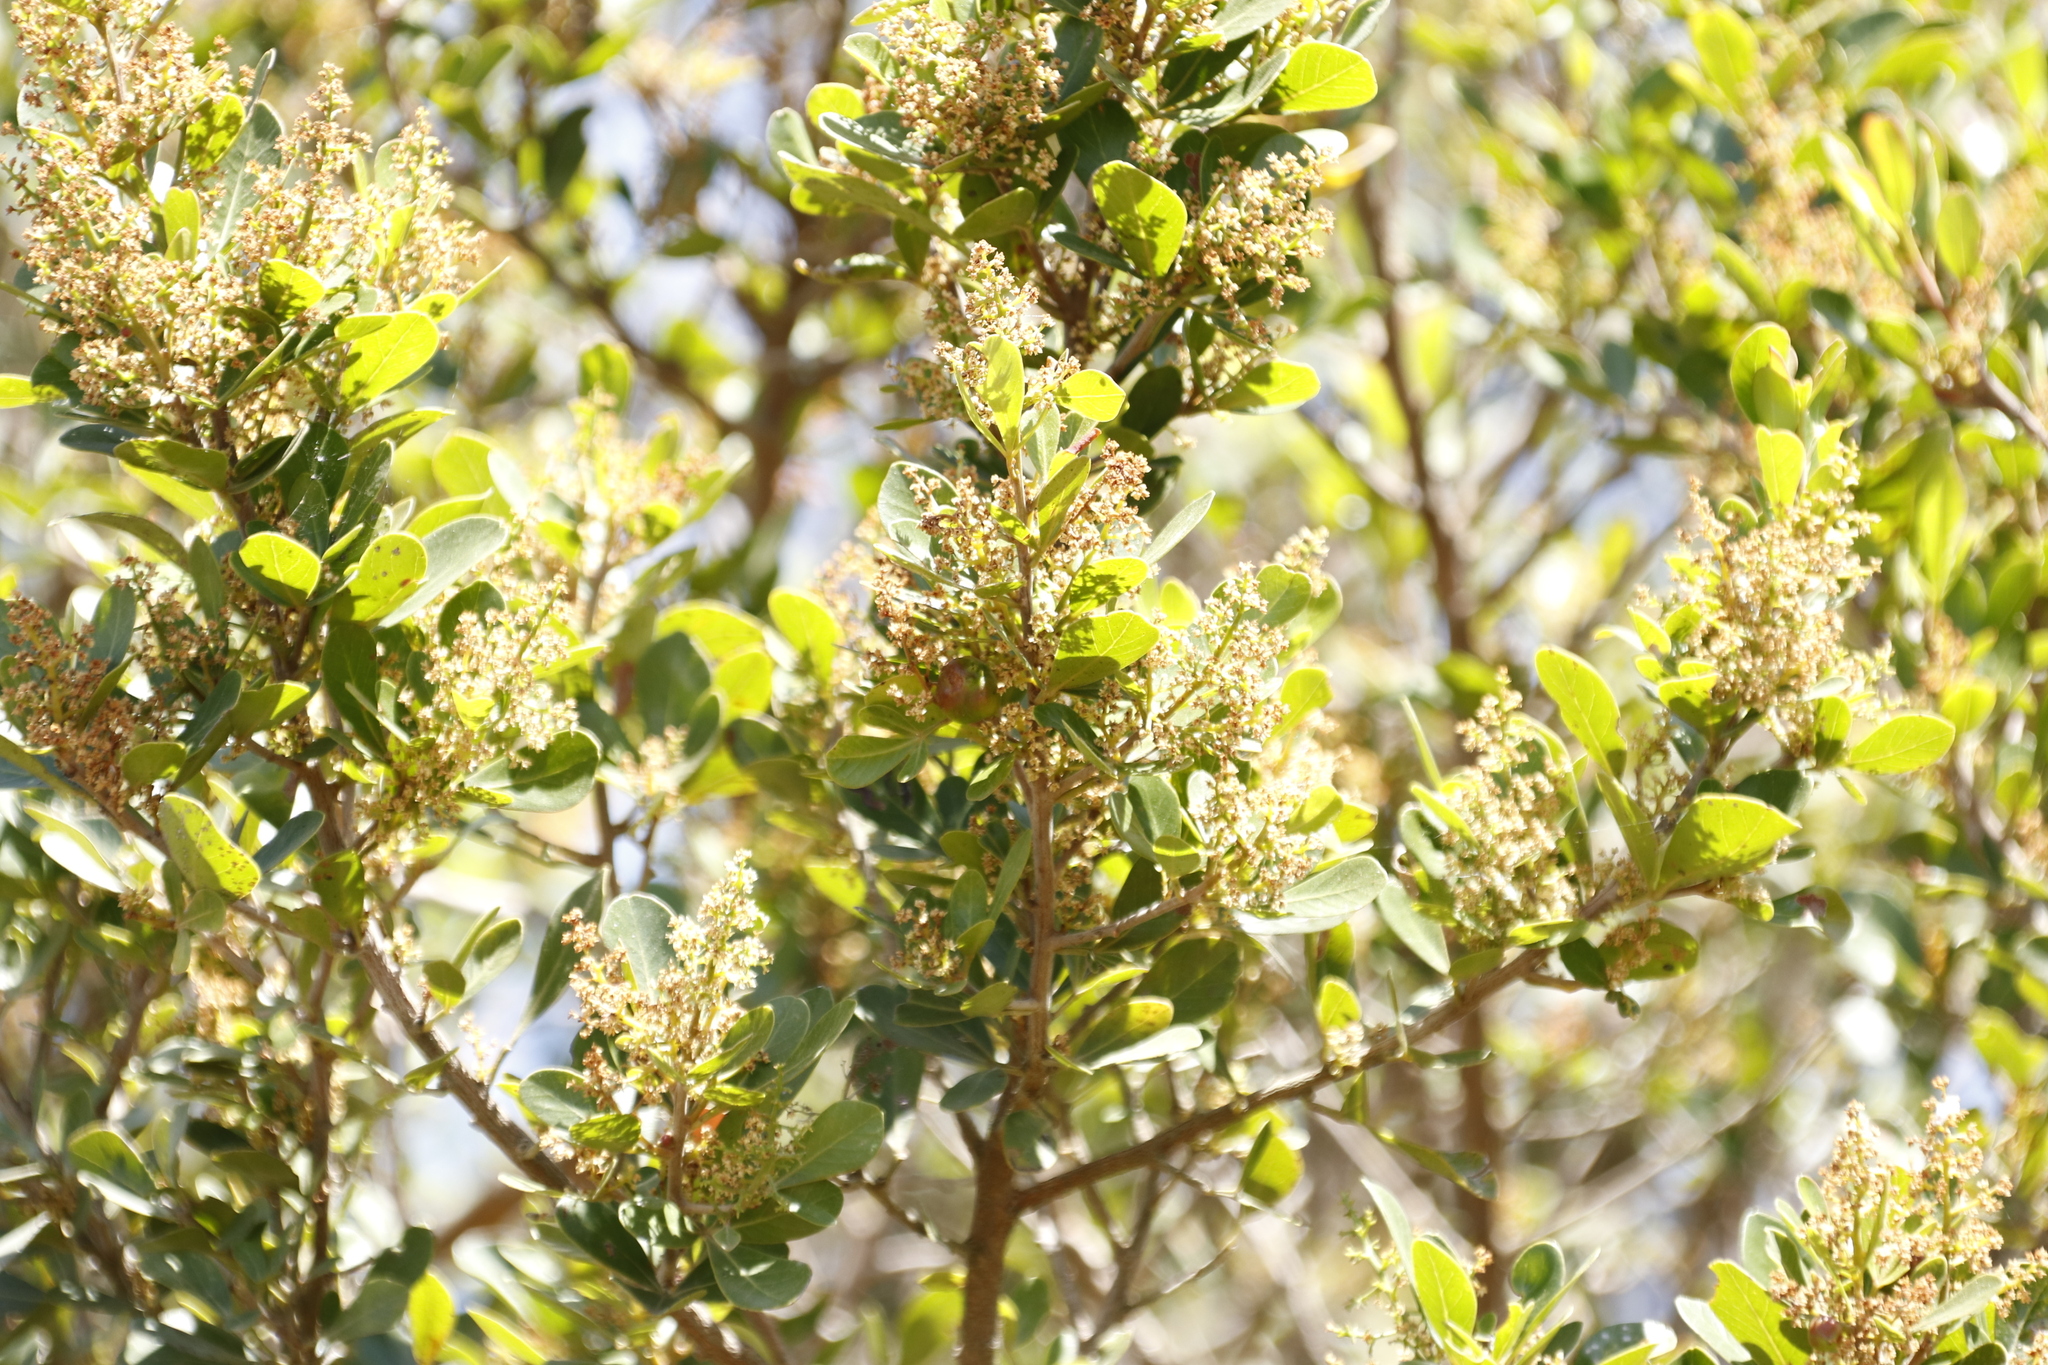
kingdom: Plantae
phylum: Tracheophyta
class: Magnoliopsida
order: Sapindales
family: Anacardiaceae
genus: Searsia
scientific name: Searsia lucida
